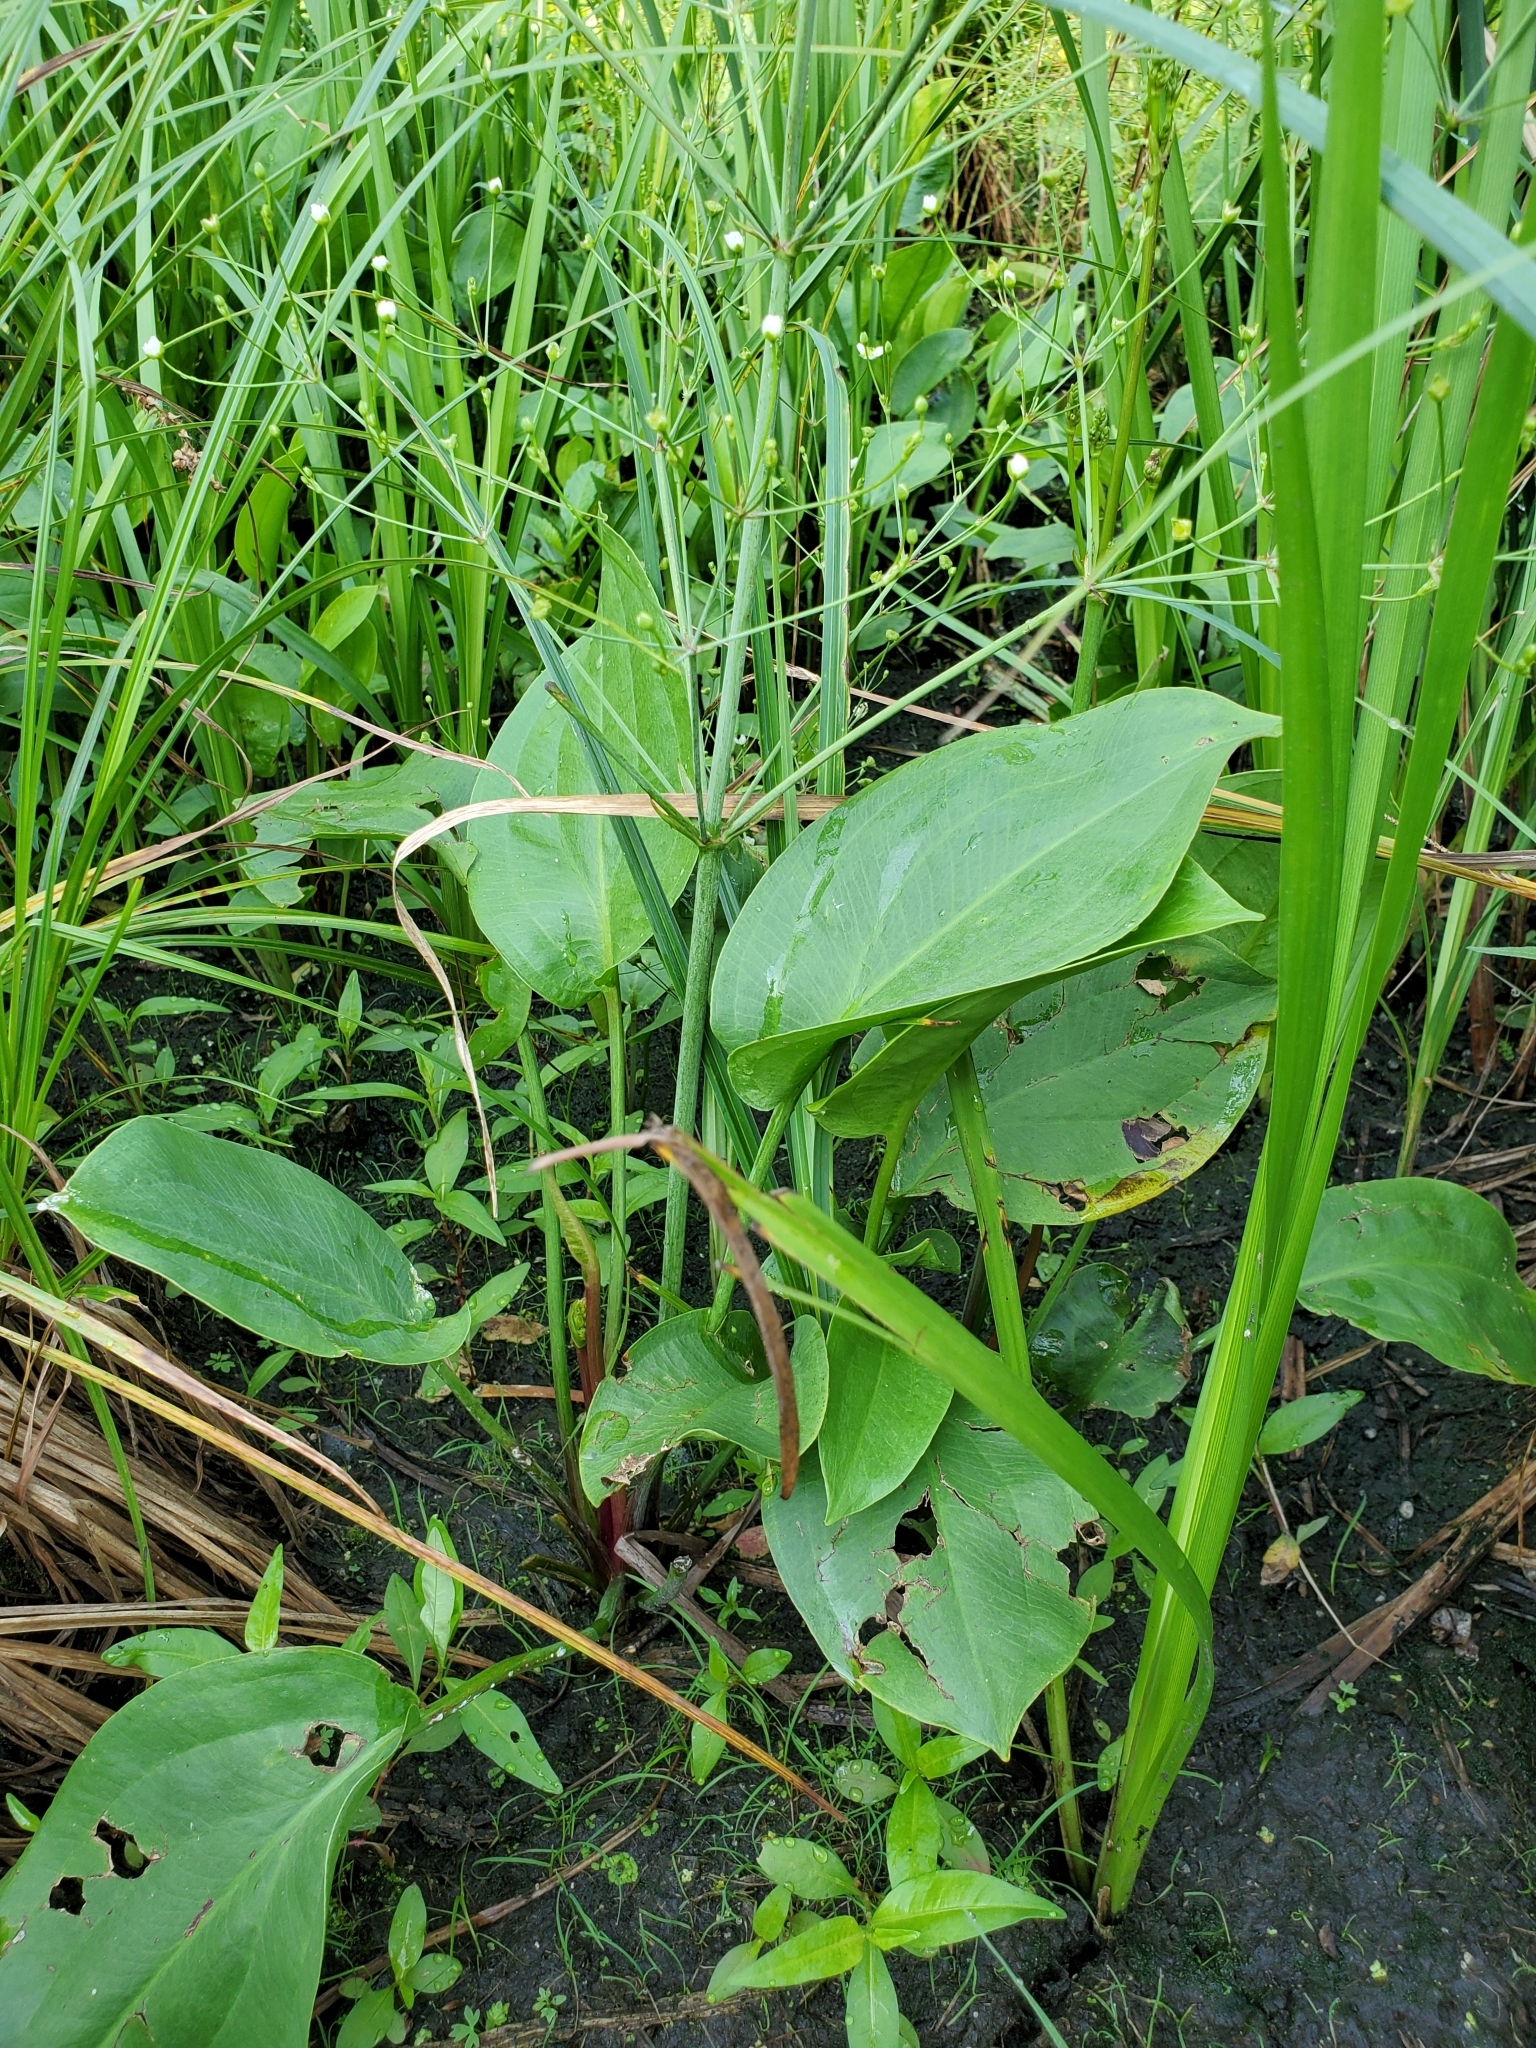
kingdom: Plantae
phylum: Tracheophyta
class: Liliopsida
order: Alismatales
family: Alismataceae
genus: Alisma
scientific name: Alisma triviale
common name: Northern water-plantain
